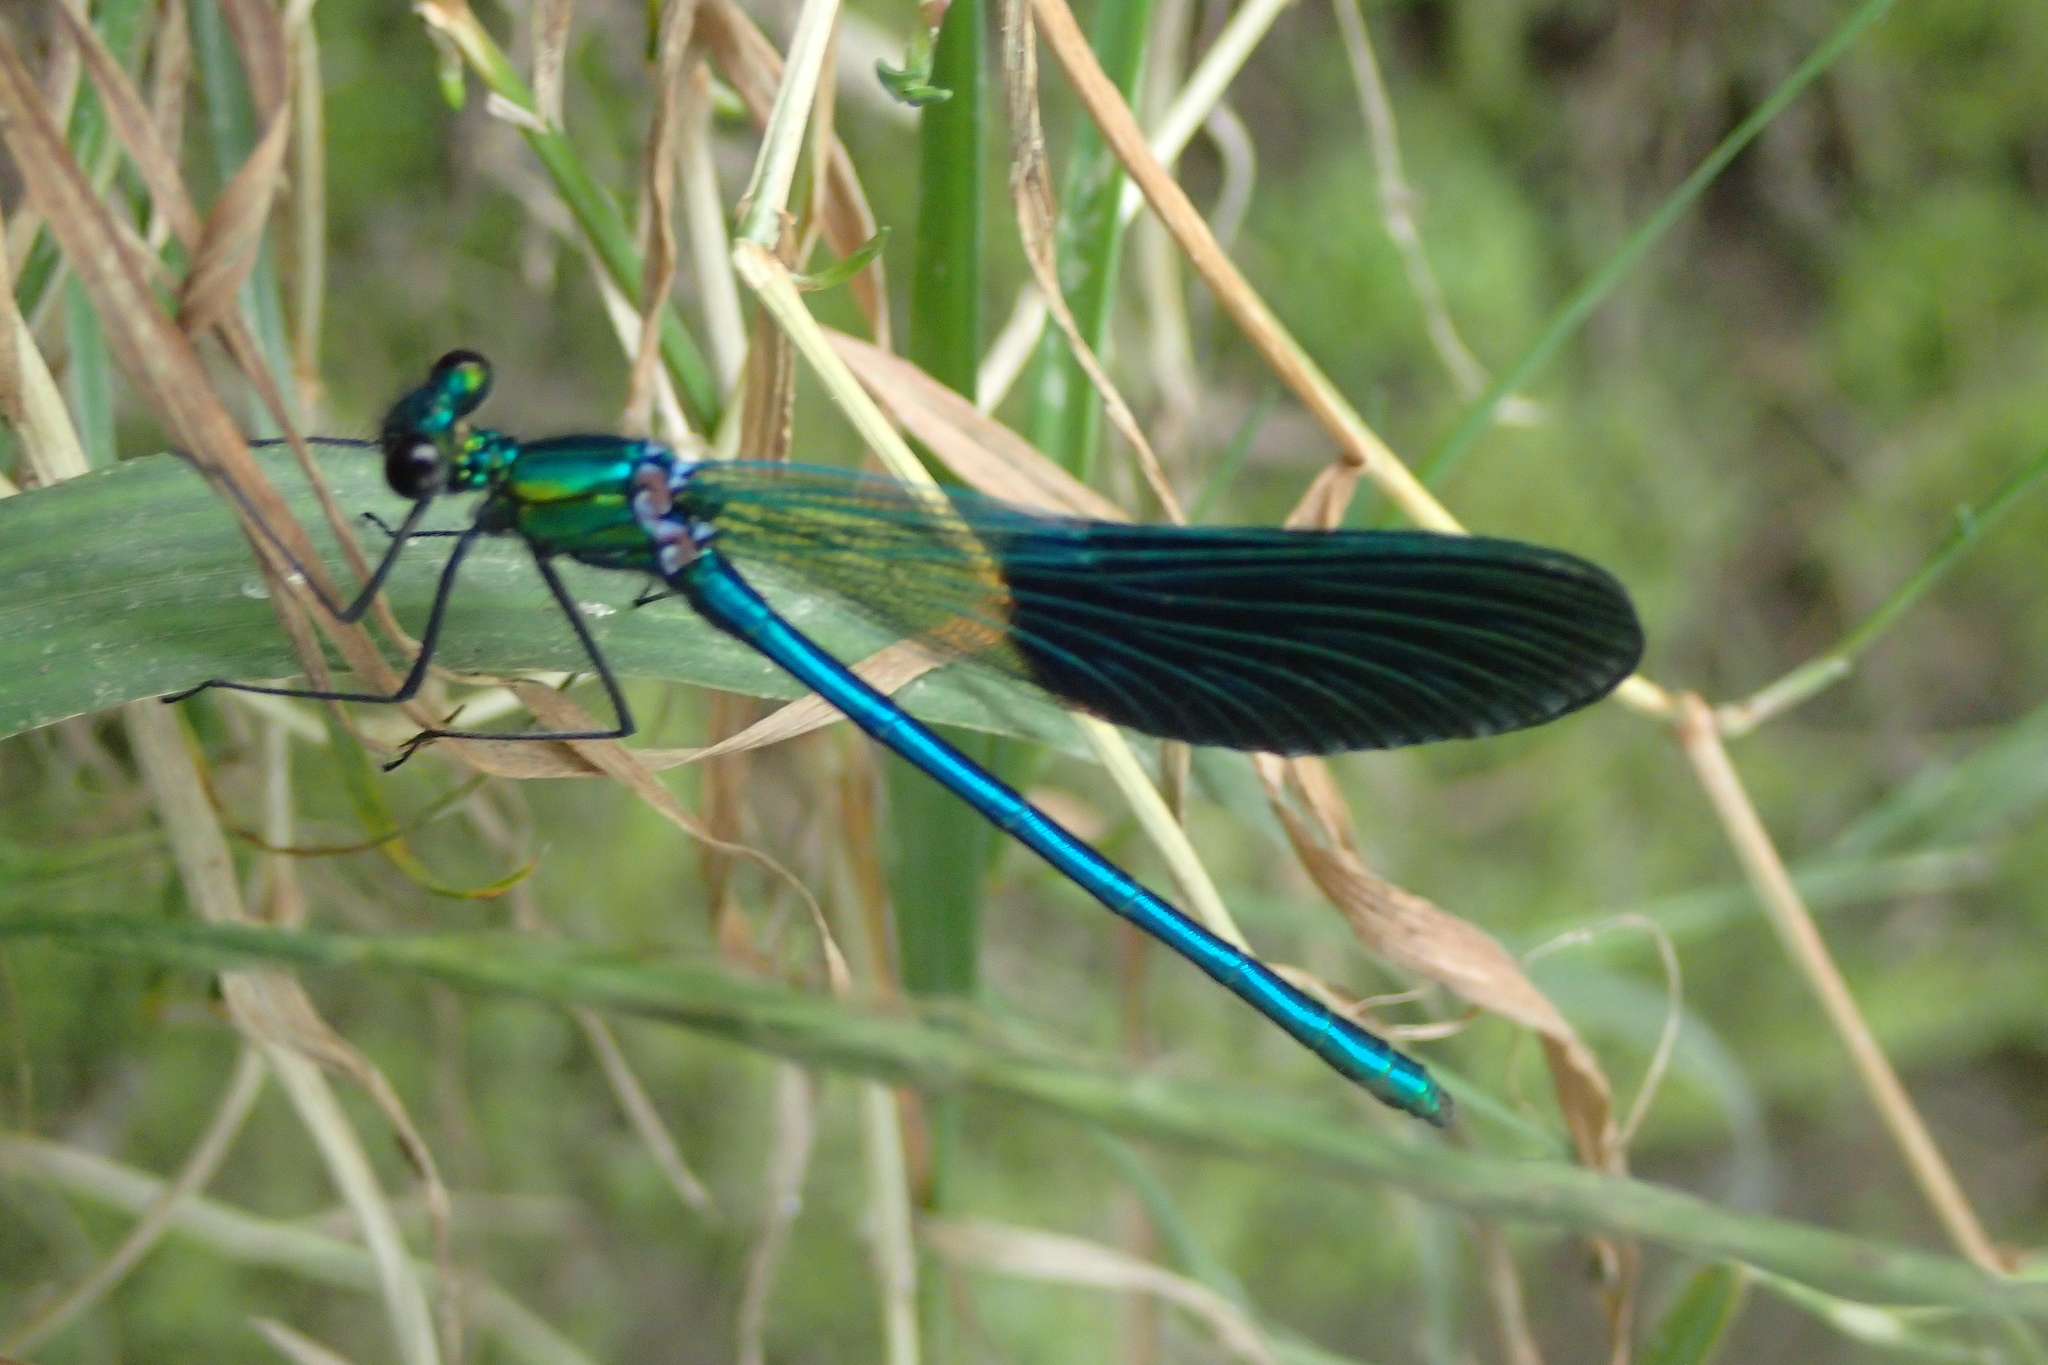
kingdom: Animalia
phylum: Arthropoda
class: Insecta
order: Odonata
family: Calopterygidae
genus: Calopteryx
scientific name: Calopteryx xanthostoma
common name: Western demoiselle
